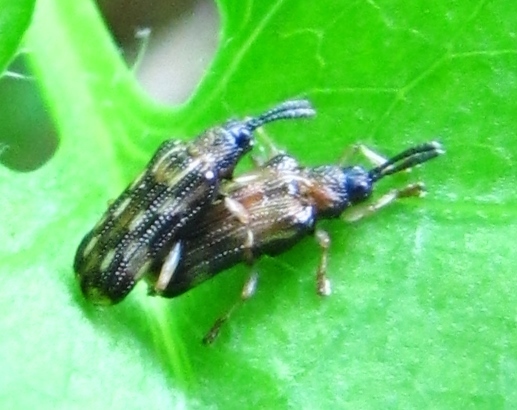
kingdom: Animalia
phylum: Arthropoda
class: Insecta
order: Coleoptera
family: Chrysomelidae
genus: Sumitrosis
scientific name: Sumitrosis inaequalis
